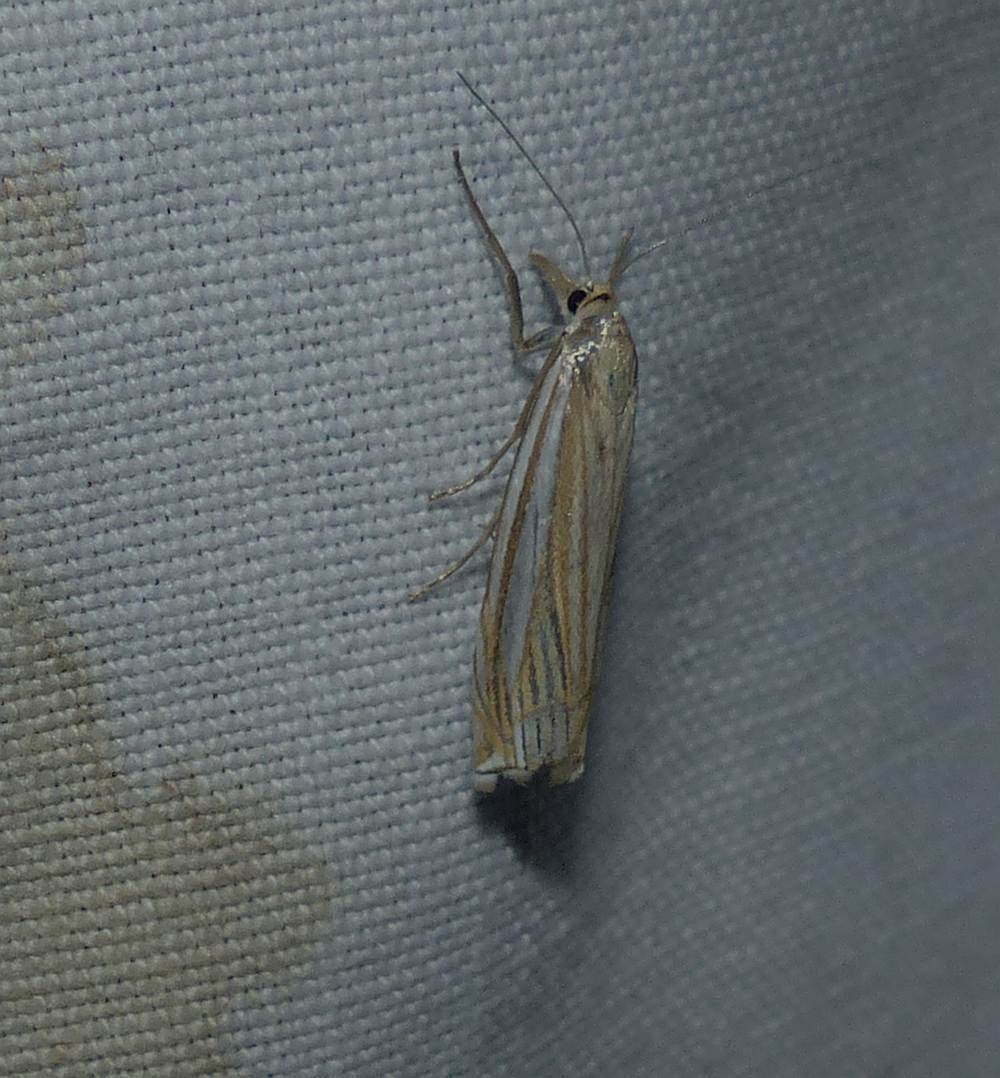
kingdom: Animalia
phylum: Arthropoda
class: Insecta
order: Lepidoptera
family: Crambidae
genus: Crambus
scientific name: Crambus laqueatellus
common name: Eastern grass-veneer
